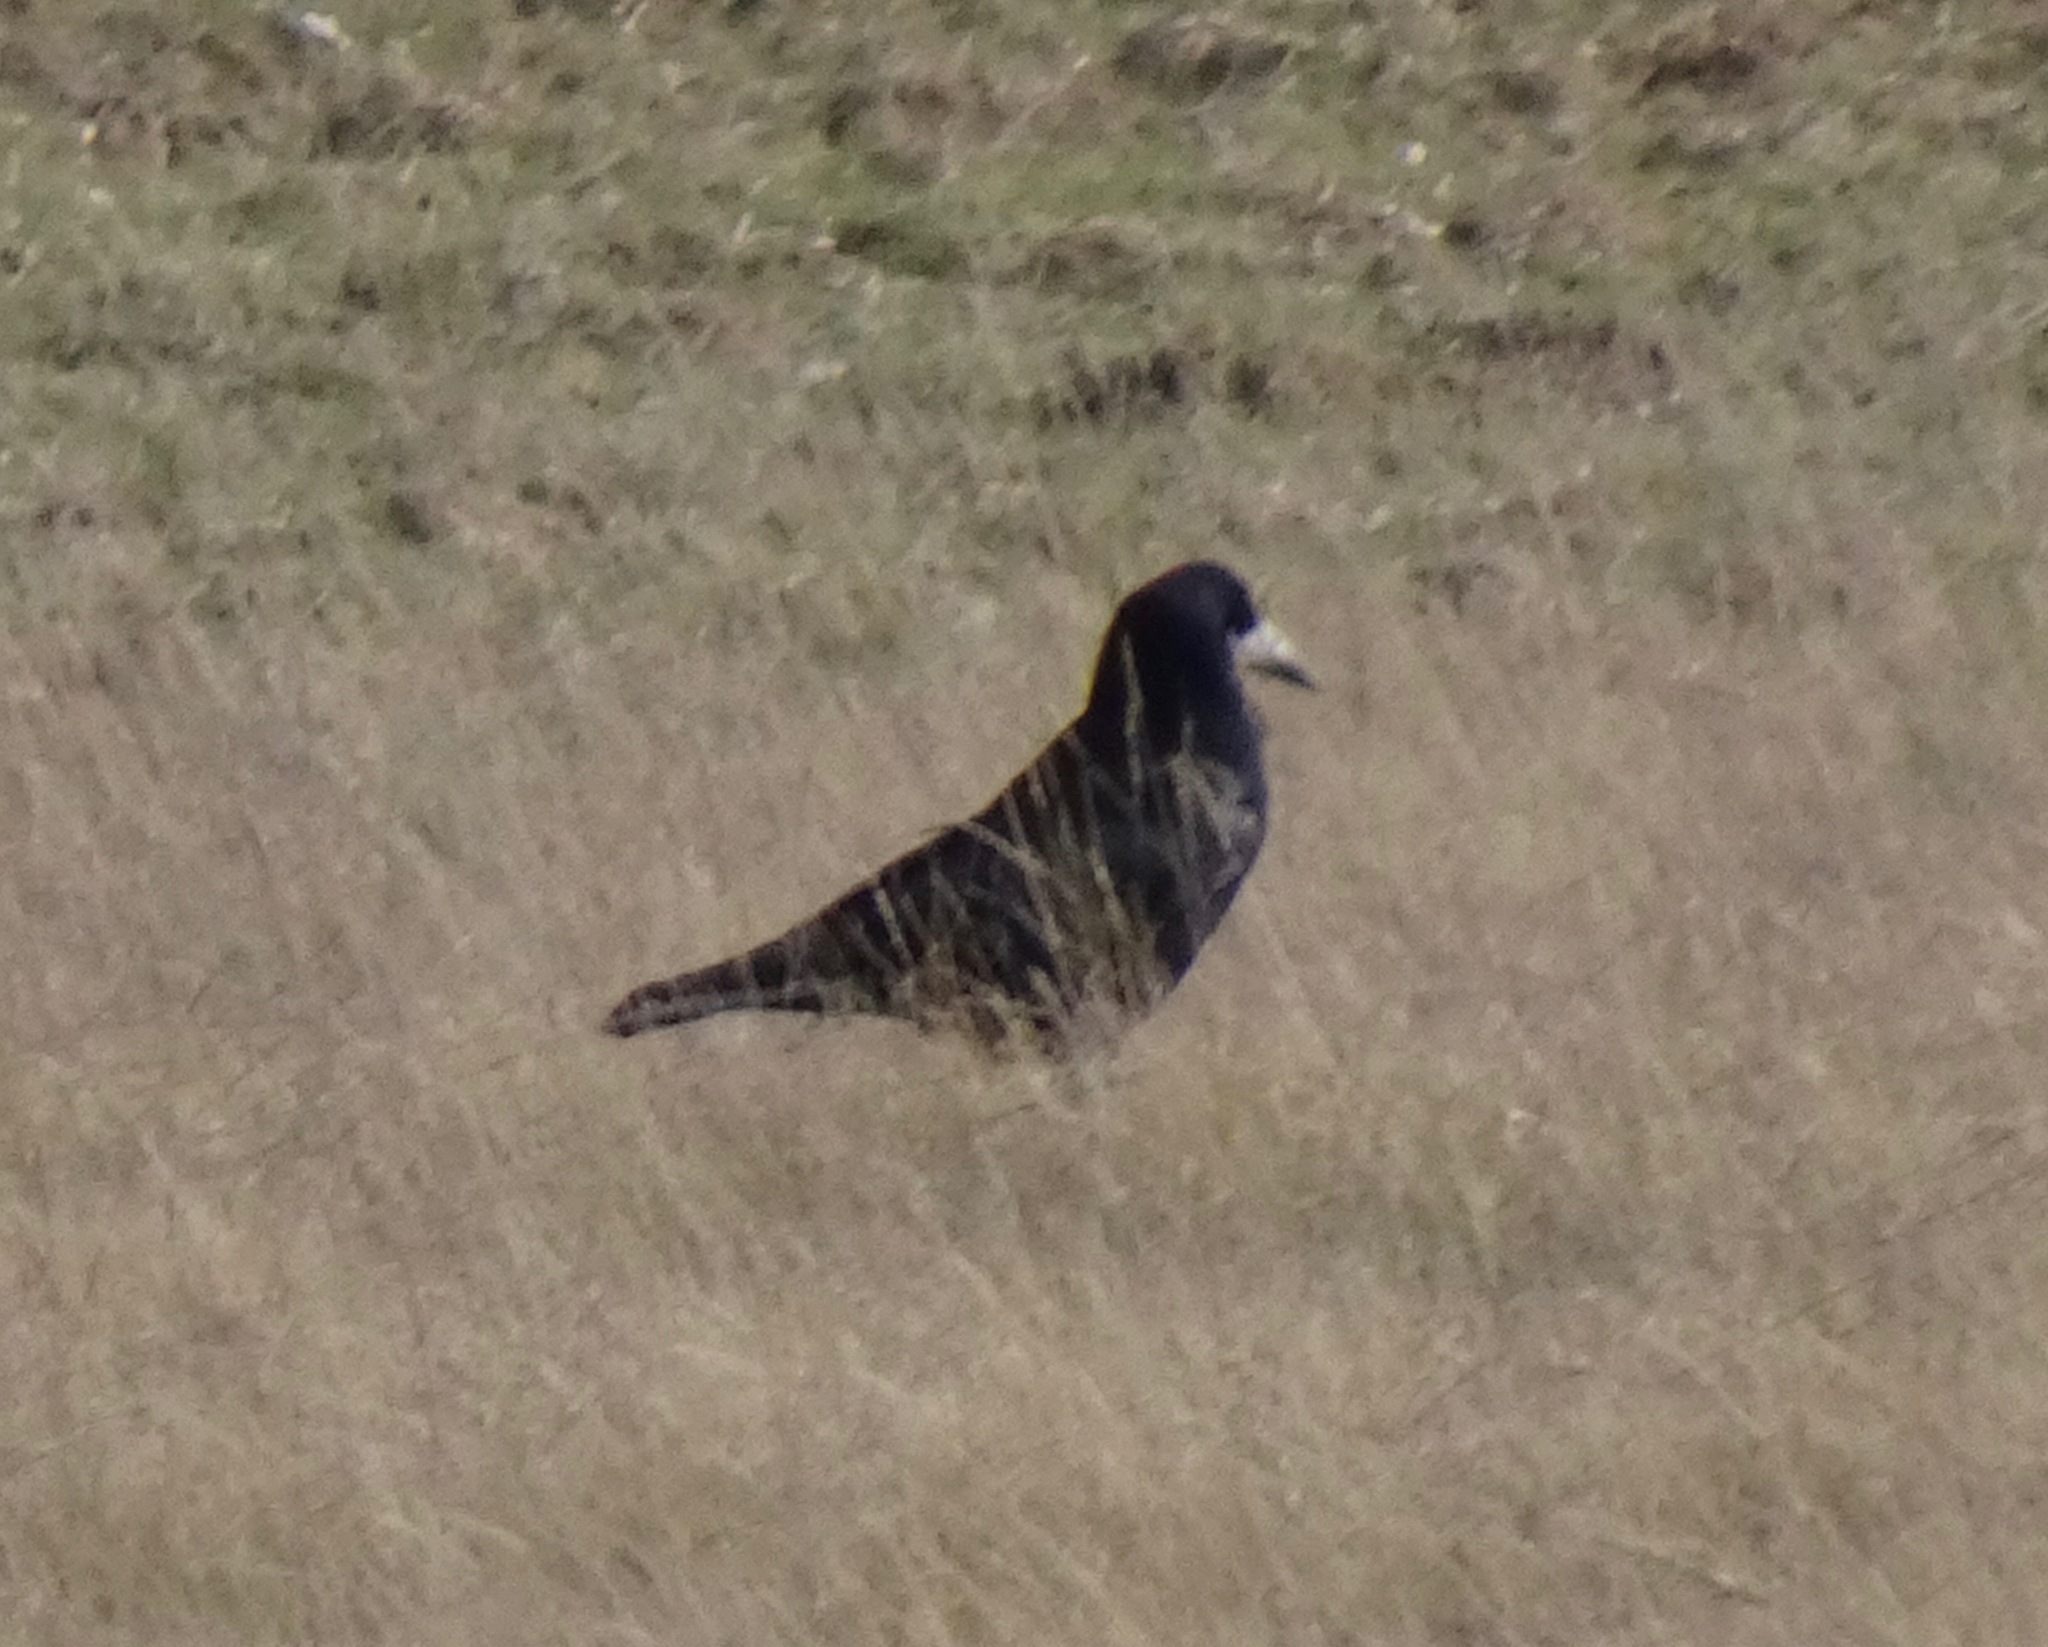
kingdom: Animalia
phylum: Chordata
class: Aves
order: Passeriformes
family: Corvidae
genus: Corvus
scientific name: Corvus frugilegus
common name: Rook
